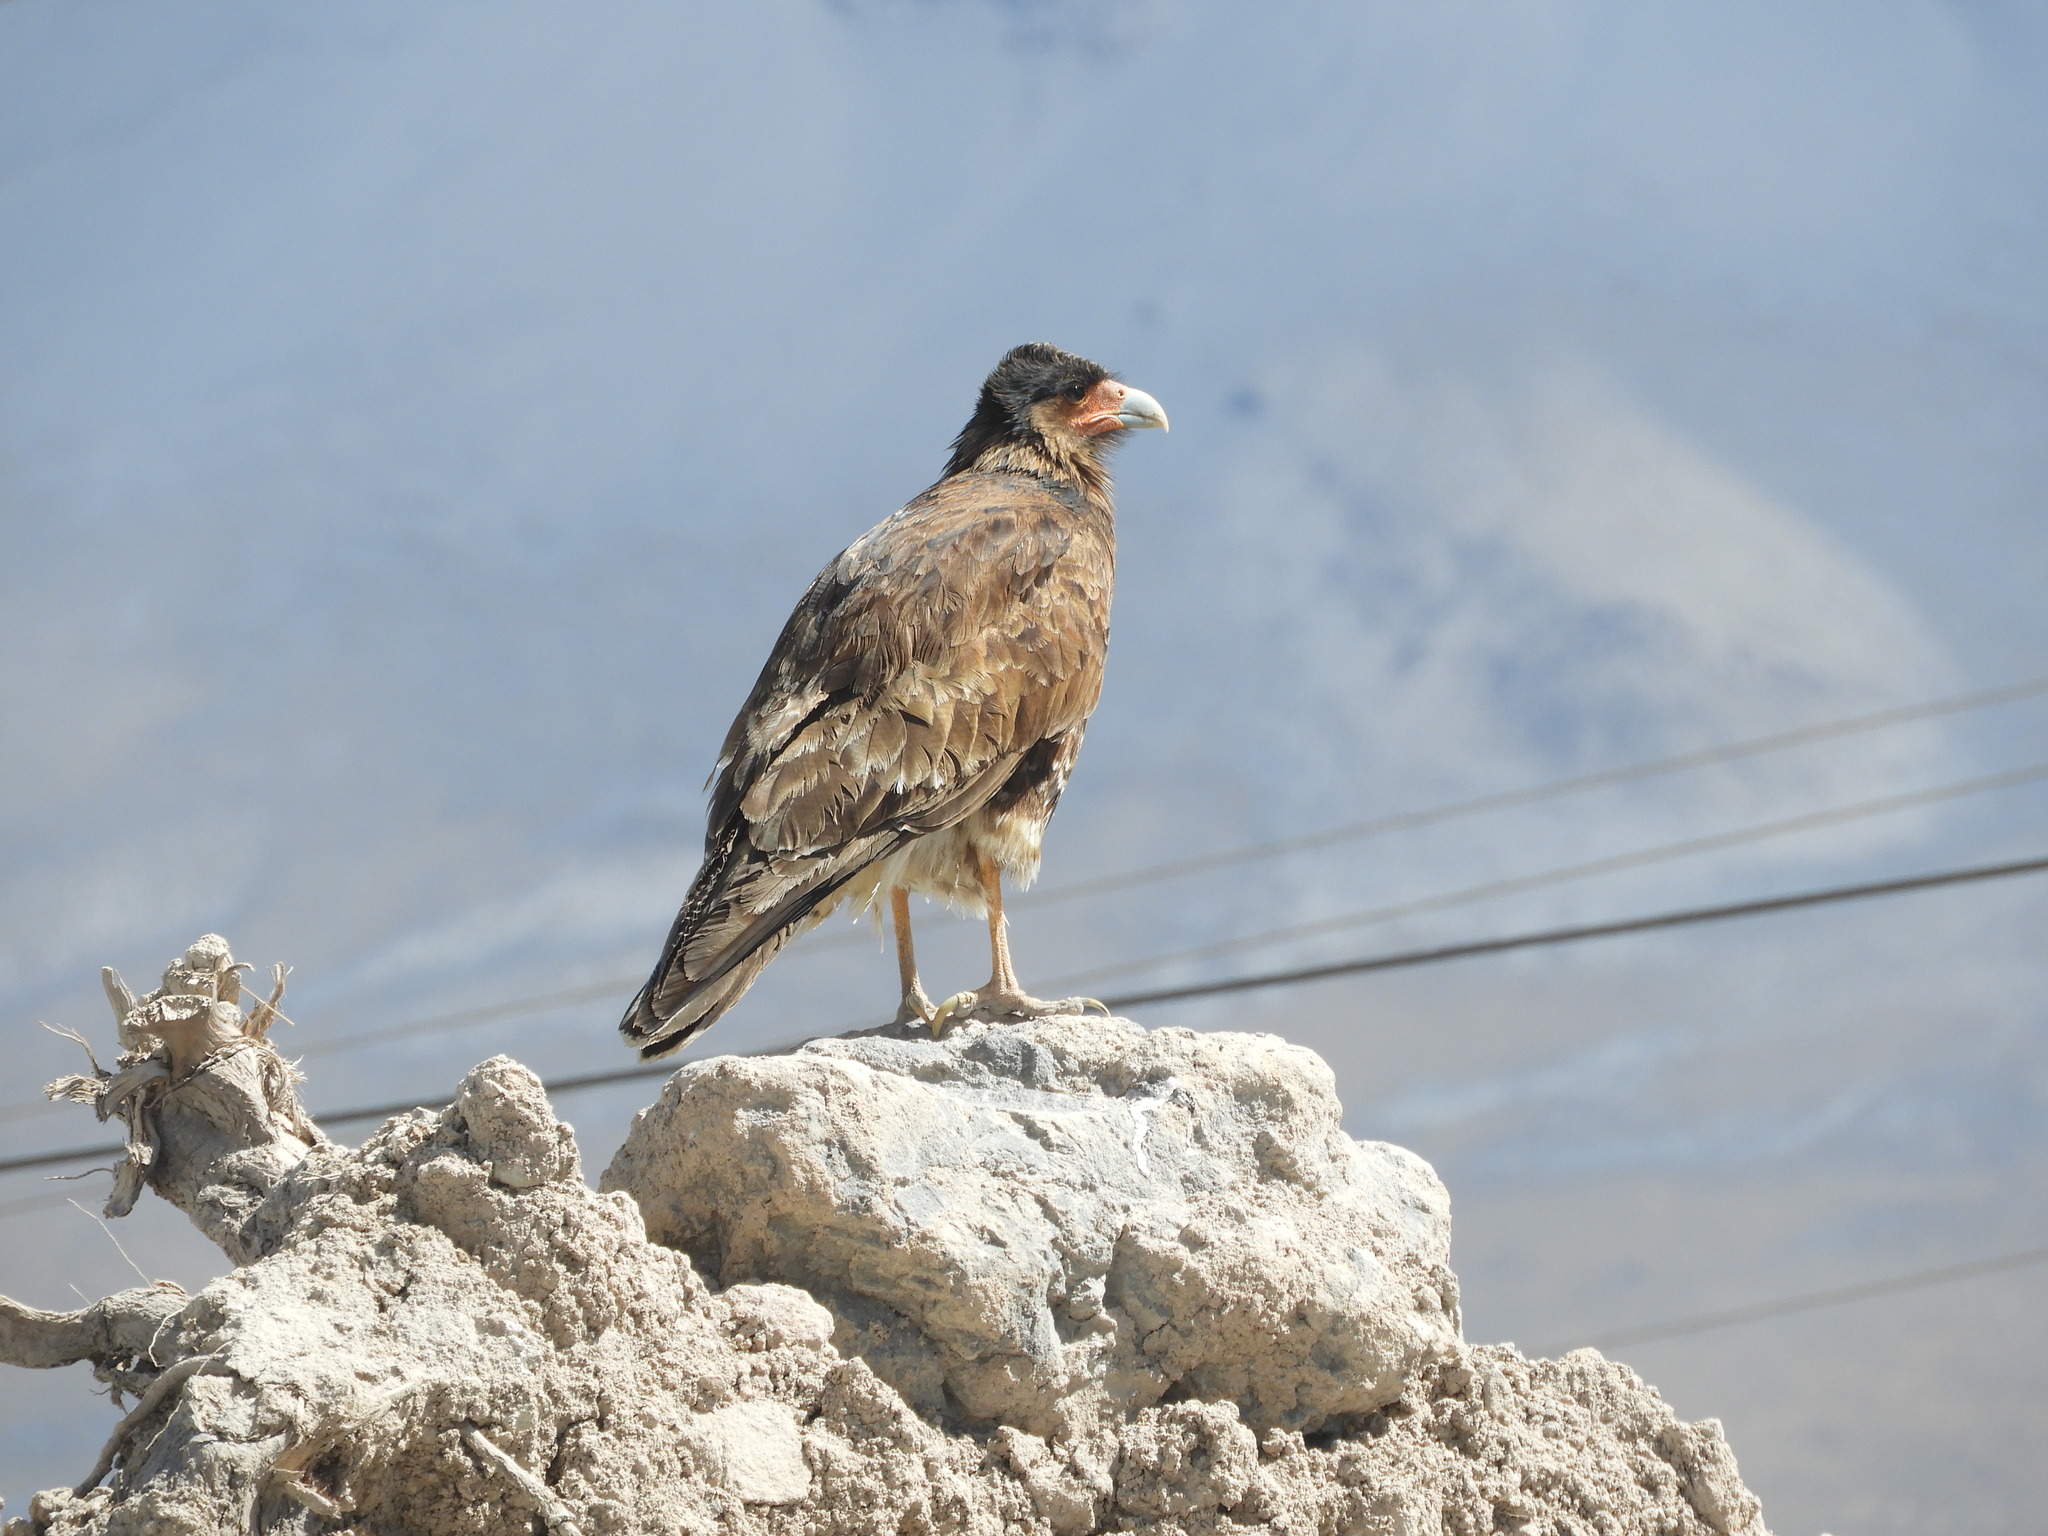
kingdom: Animalia
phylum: Chordata
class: Aves
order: Falconiformes
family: Falconidae
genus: Daptrius
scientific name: Daptrius
